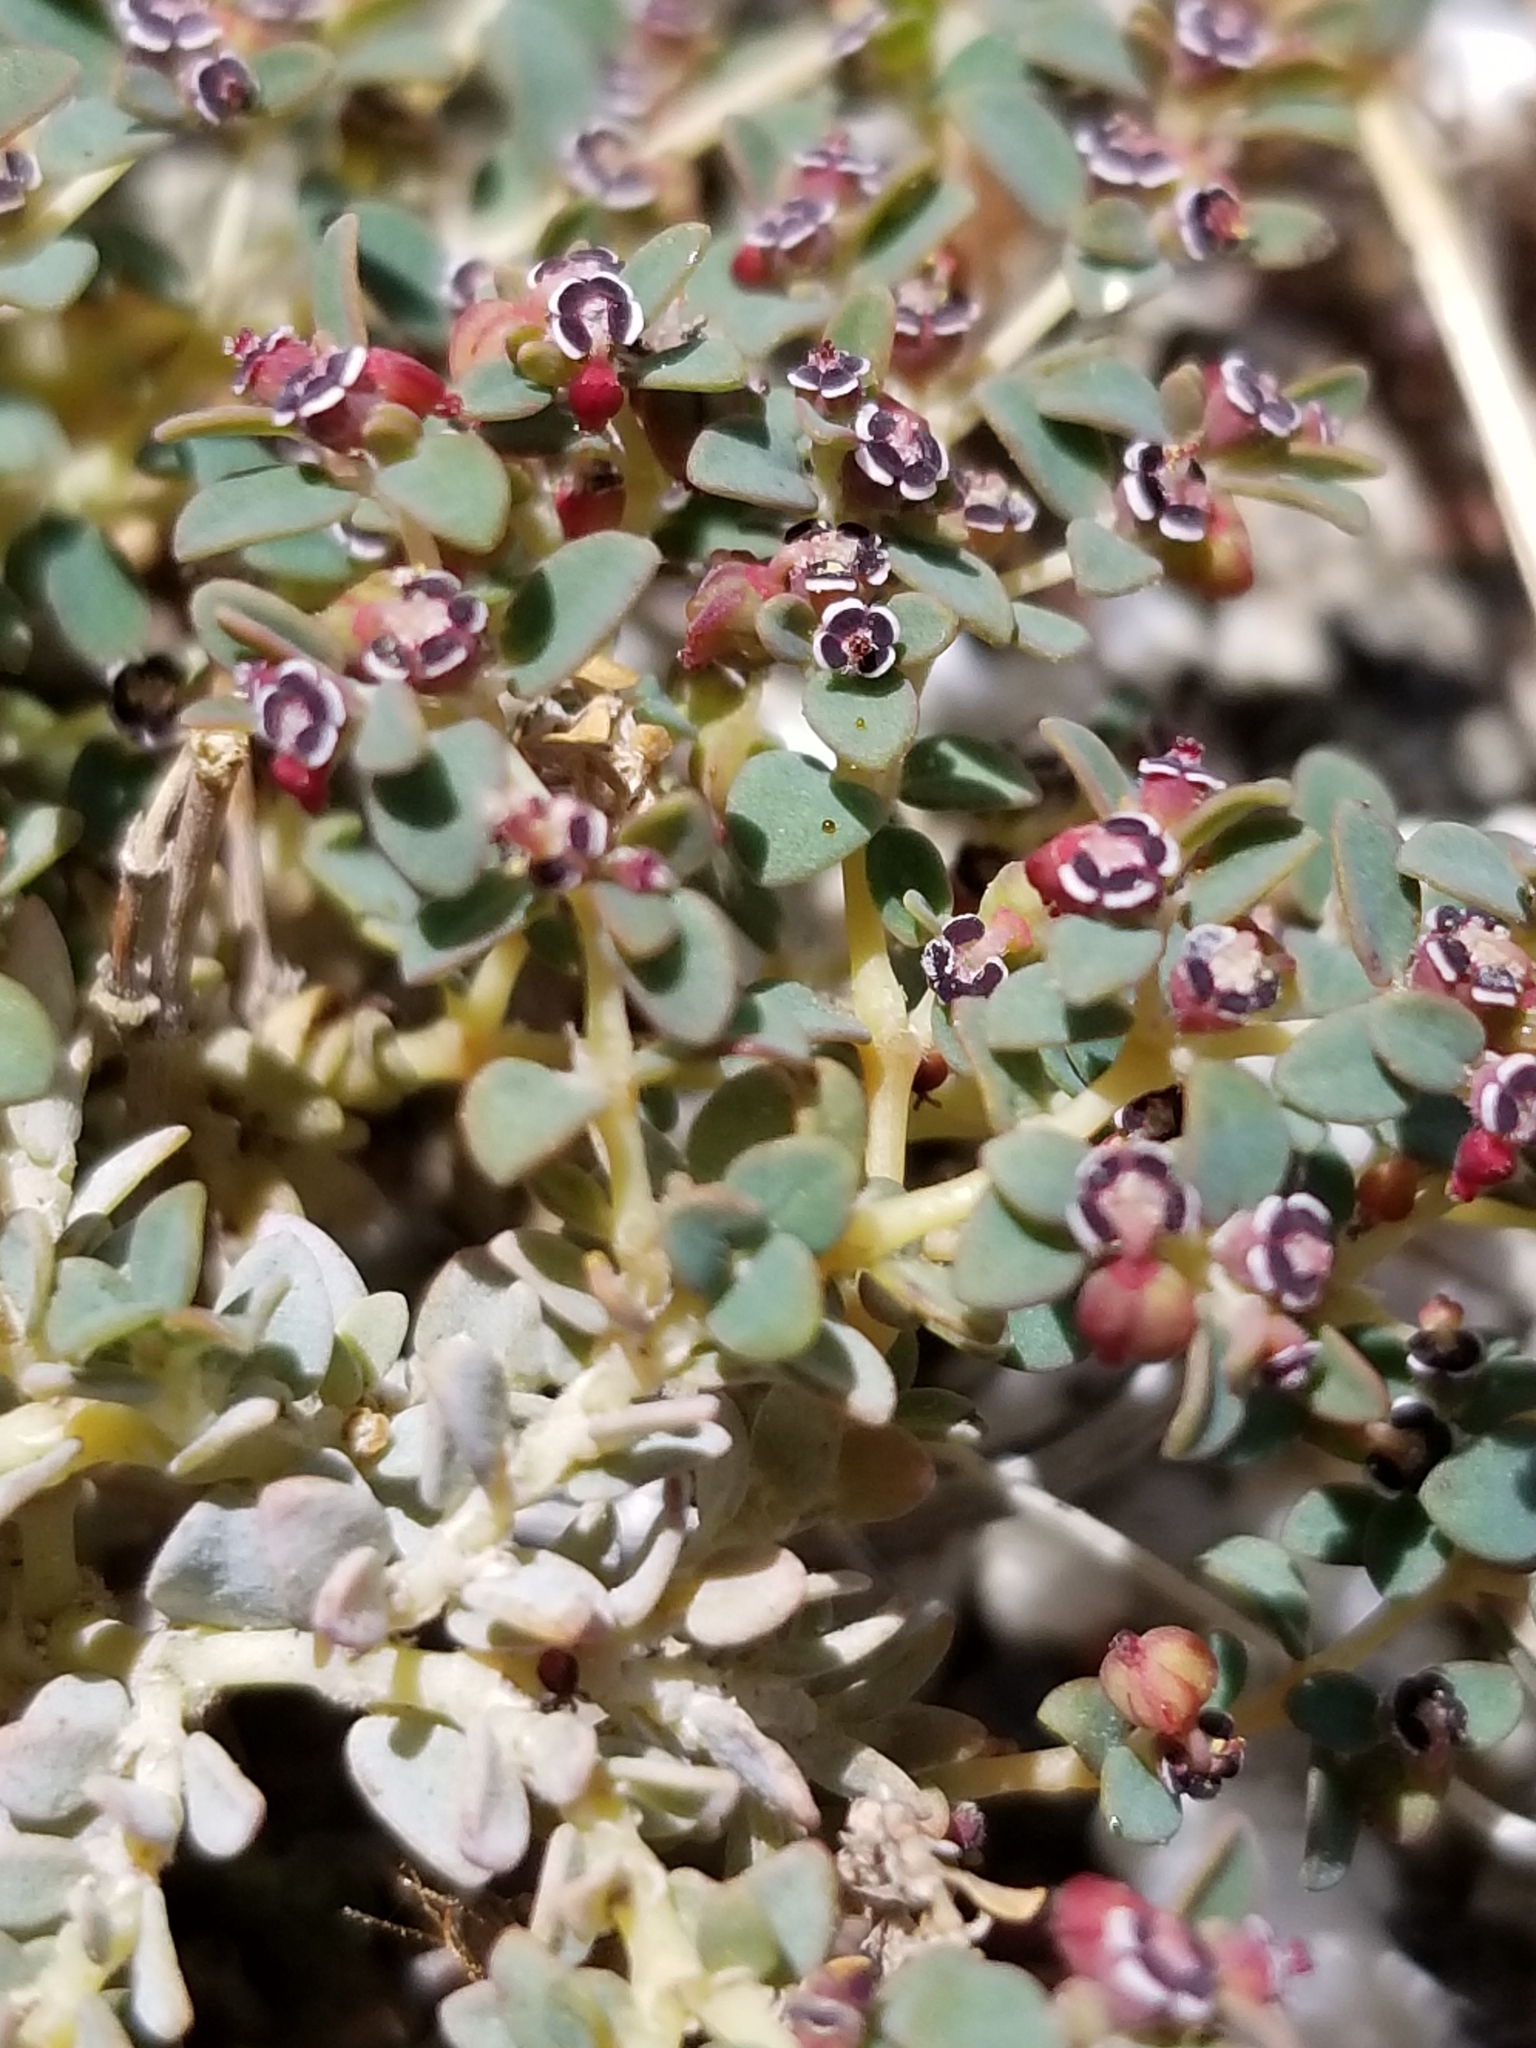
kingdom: Plantae
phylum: Tracheophyta
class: Magnoliopsida
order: Malpighiales
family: Euphorbiaceae
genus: Euphorbia
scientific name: Euphorbia polycarpa
